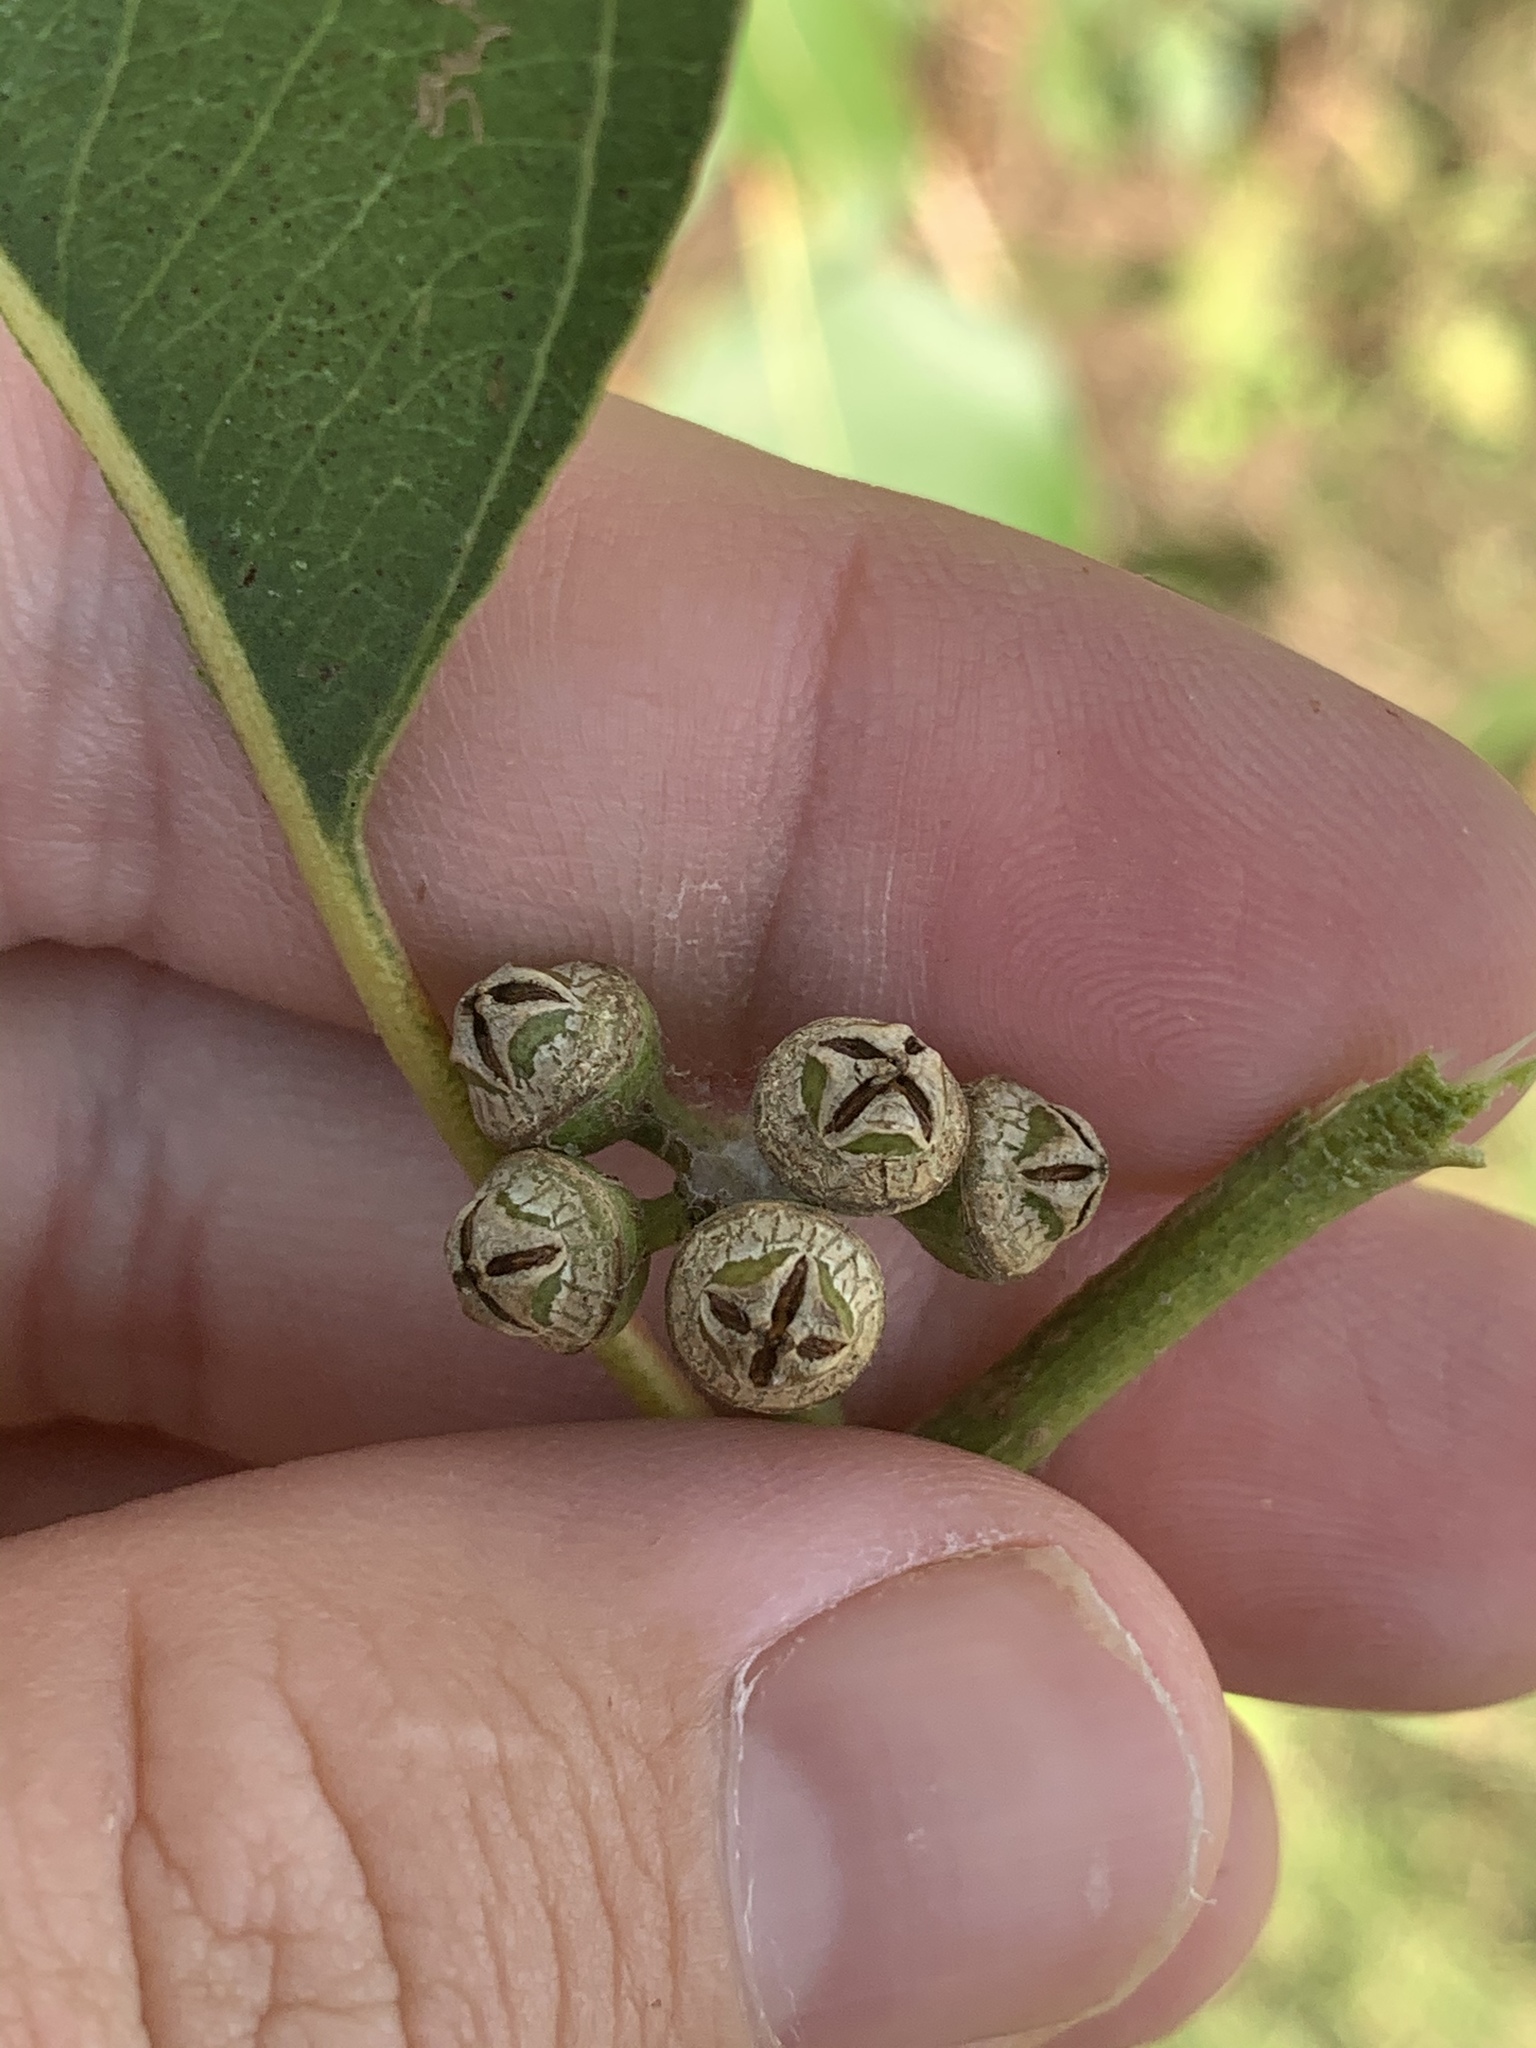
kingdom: Plantae
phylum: Tracheophyta
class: Magnoliopsida
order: Myrtales
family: Myrtaceae
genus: Eucalyptus
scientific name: Eucalyptus amplifolia
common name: Cabbage gum
